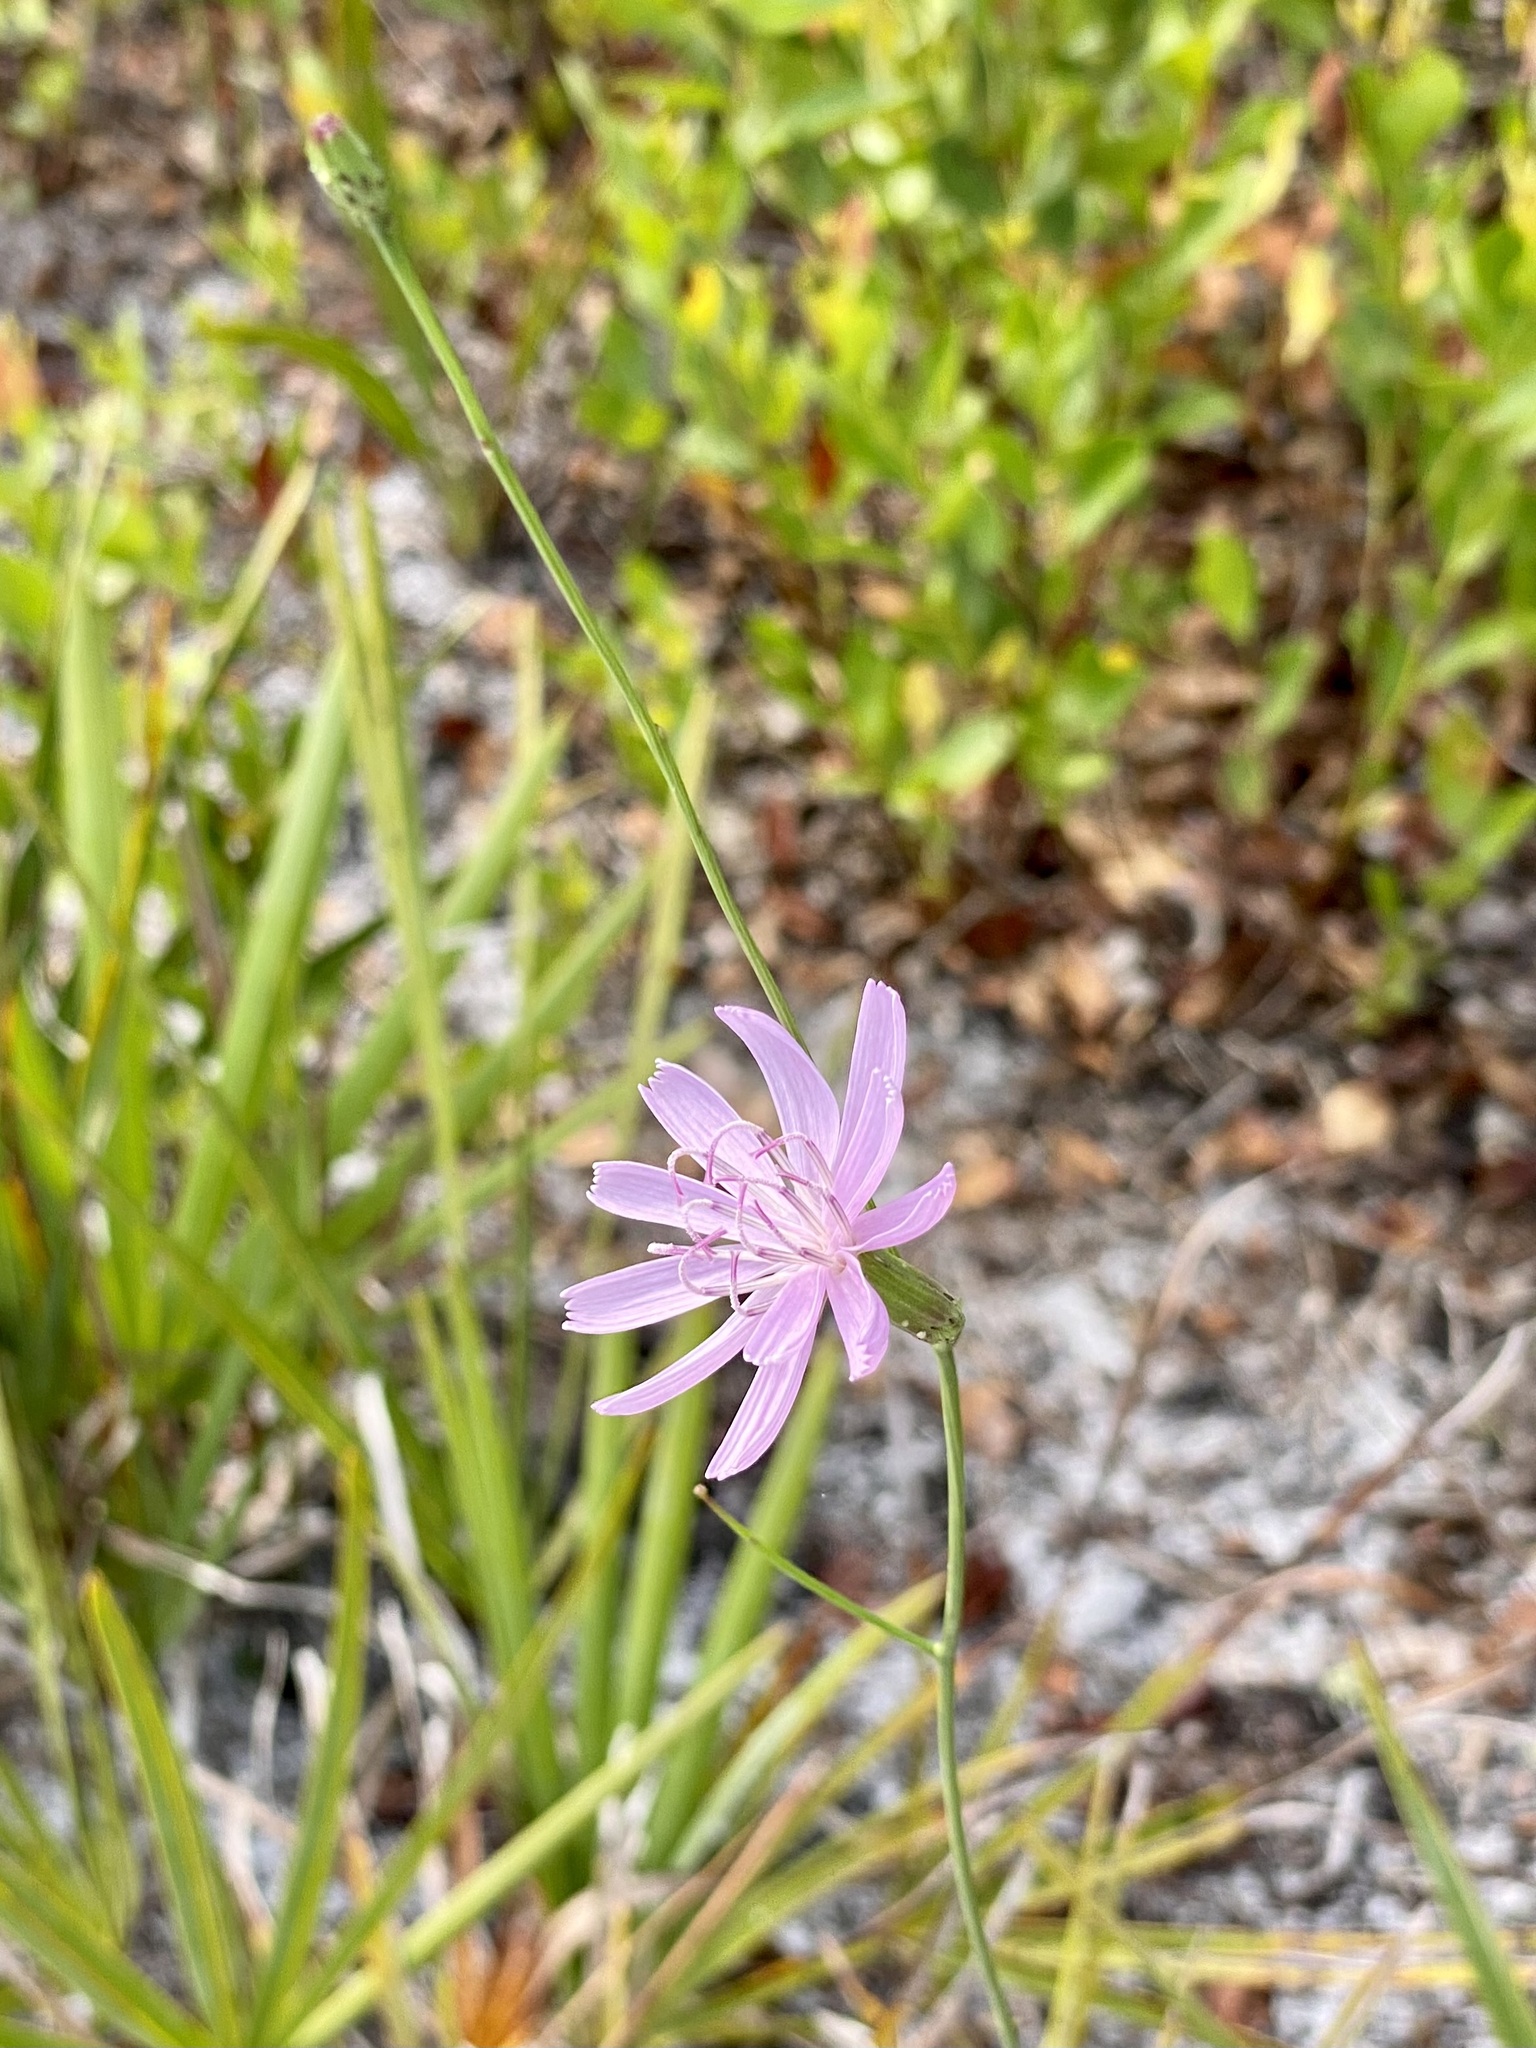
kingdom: Plantae
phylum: Tracheophyta
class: Magnoliopsida
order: Asterales
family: Asteraceae
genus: Lygodesmia
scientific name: Lygodesmia aphylla
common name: Rose-rush
